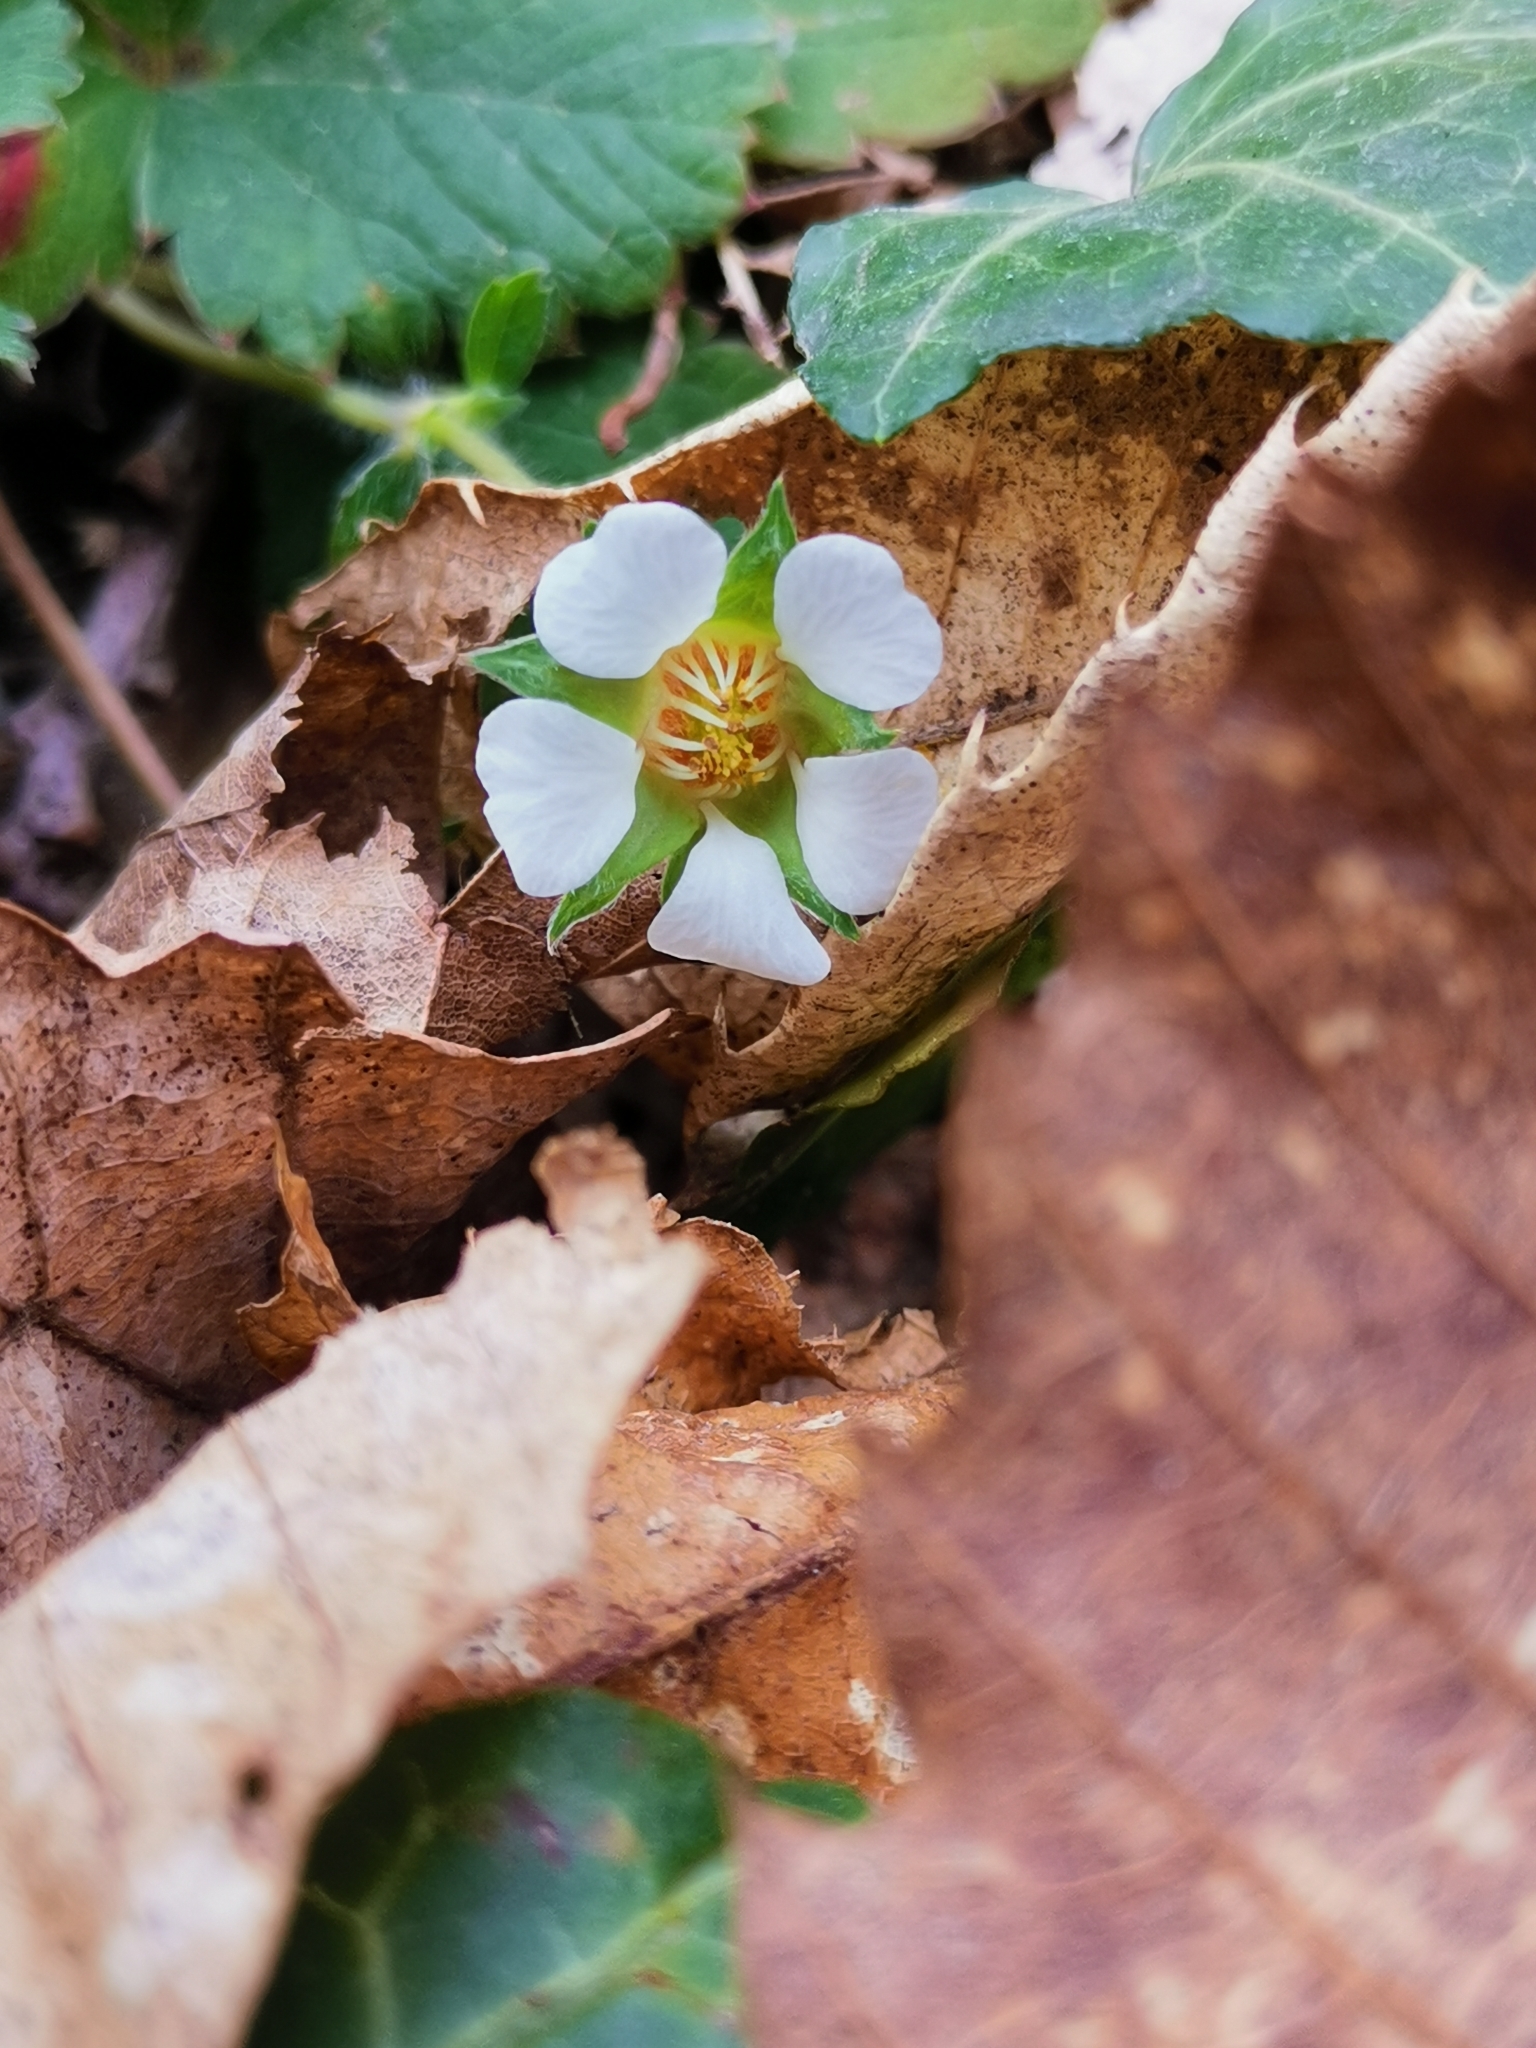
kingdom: Plantae
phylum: Tracheophyta
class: Magnoliopsida
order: Rosales
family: Rosaceae
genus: Potentilla
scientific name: Potentilla sterilis
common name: Barren strawberry
